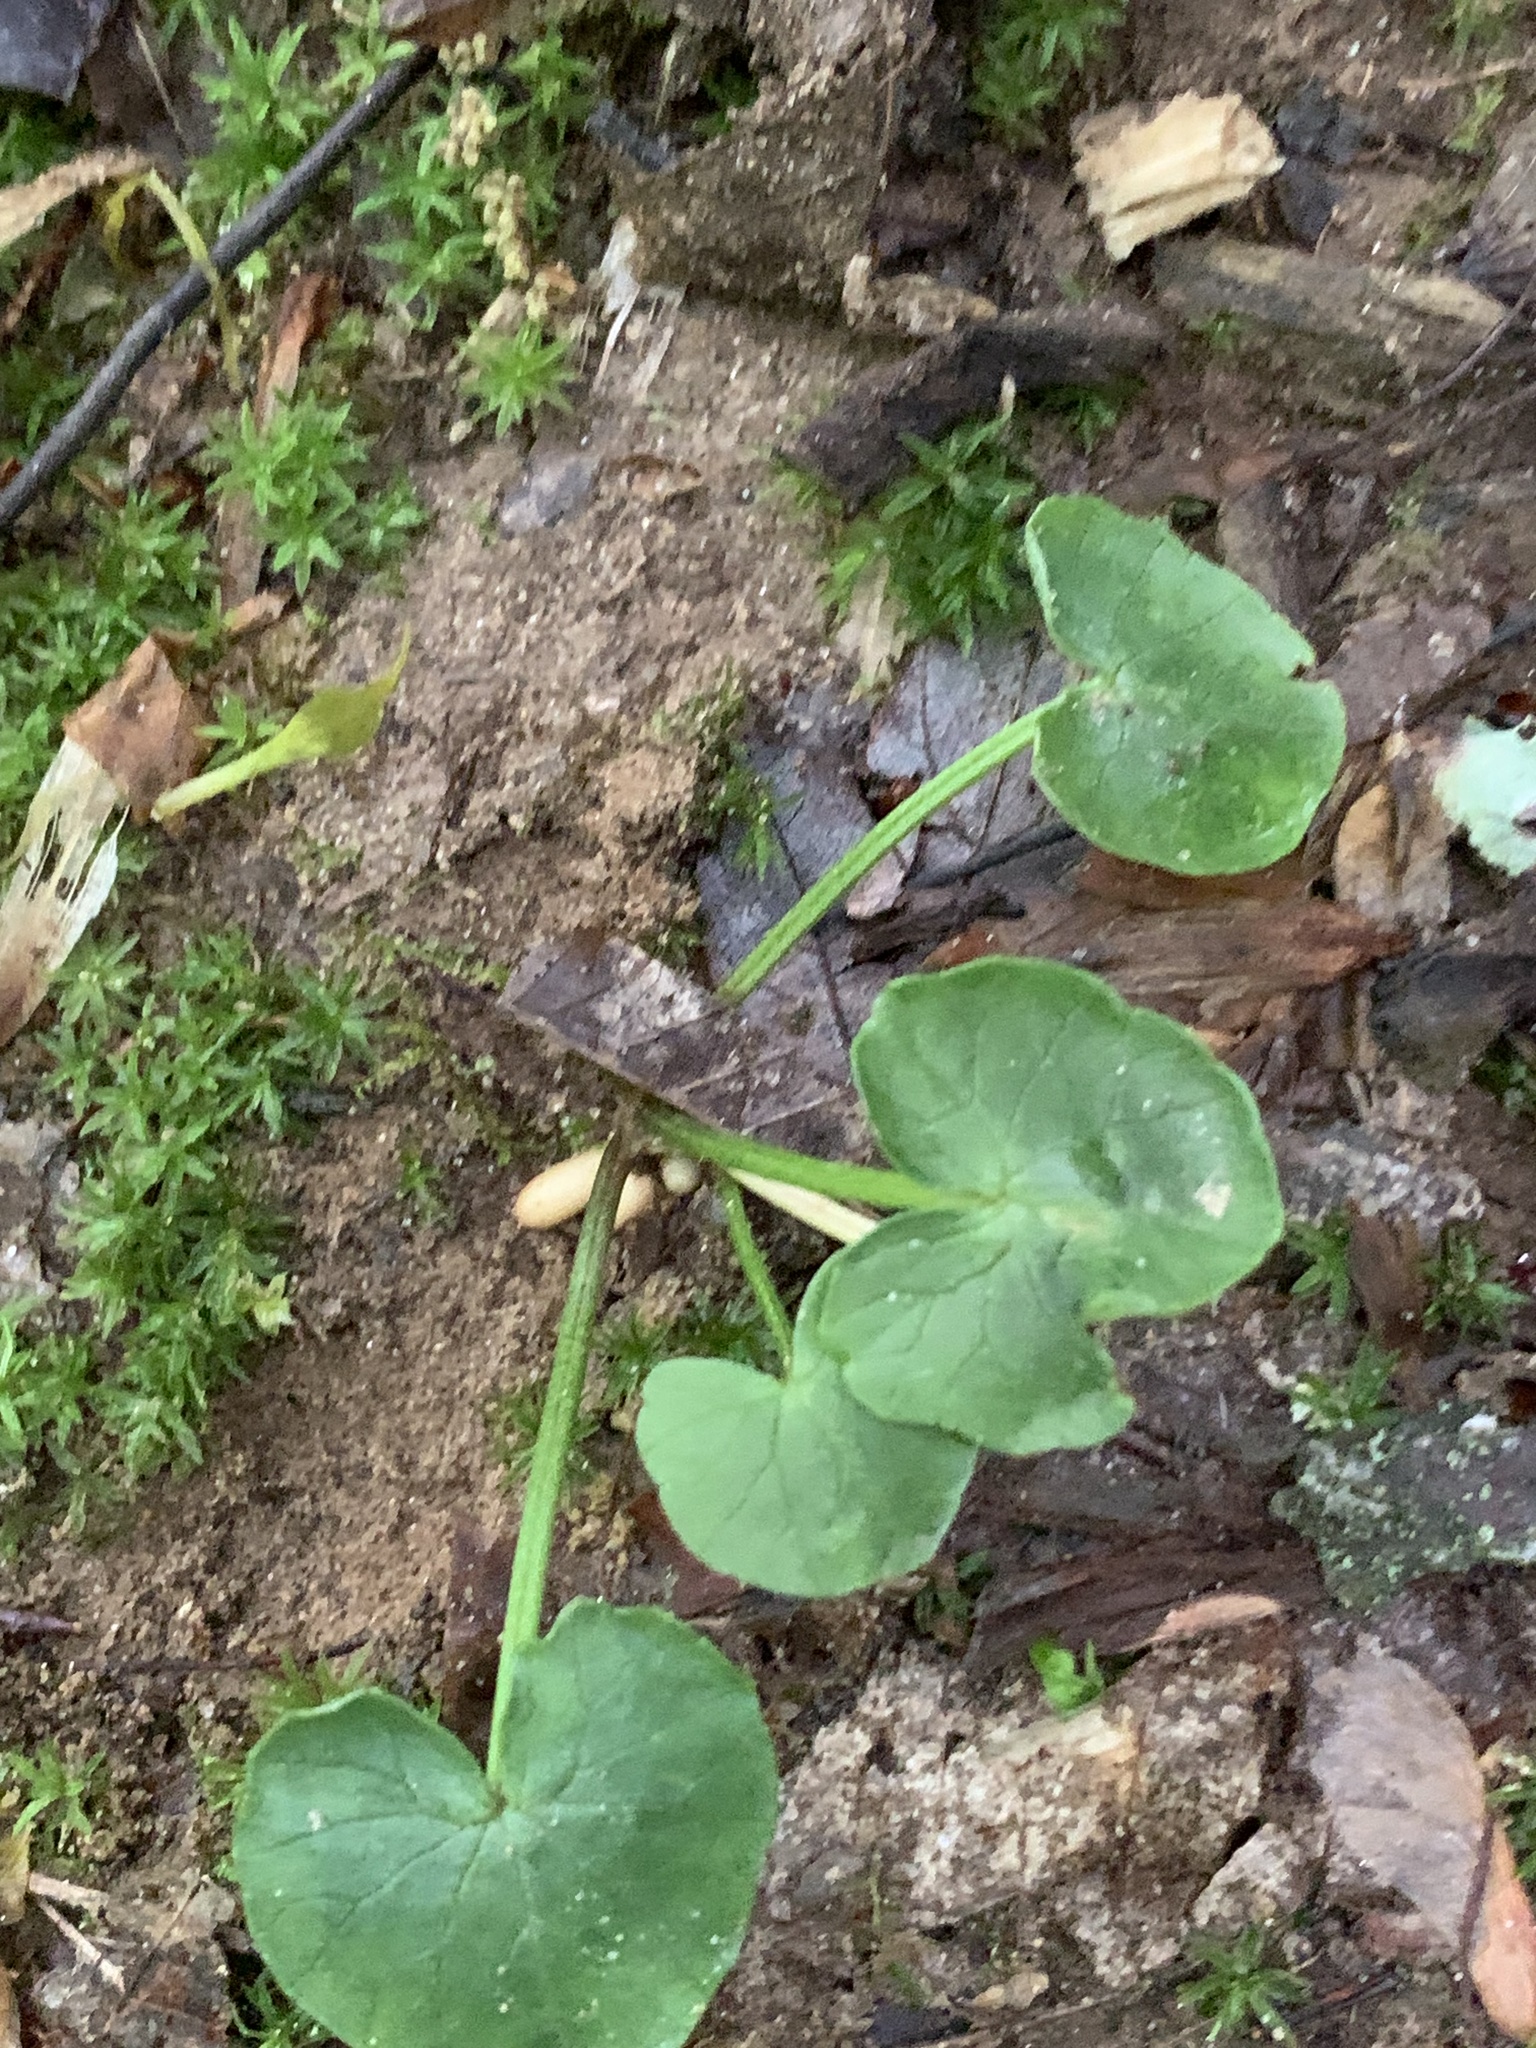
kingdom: Plantae
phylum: Tracheophyta
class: Magnoliopsida
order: Ranunculales
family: Ranunculaceae
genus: Ficaria
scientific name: Ficaria verna
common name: Lesser celandine
